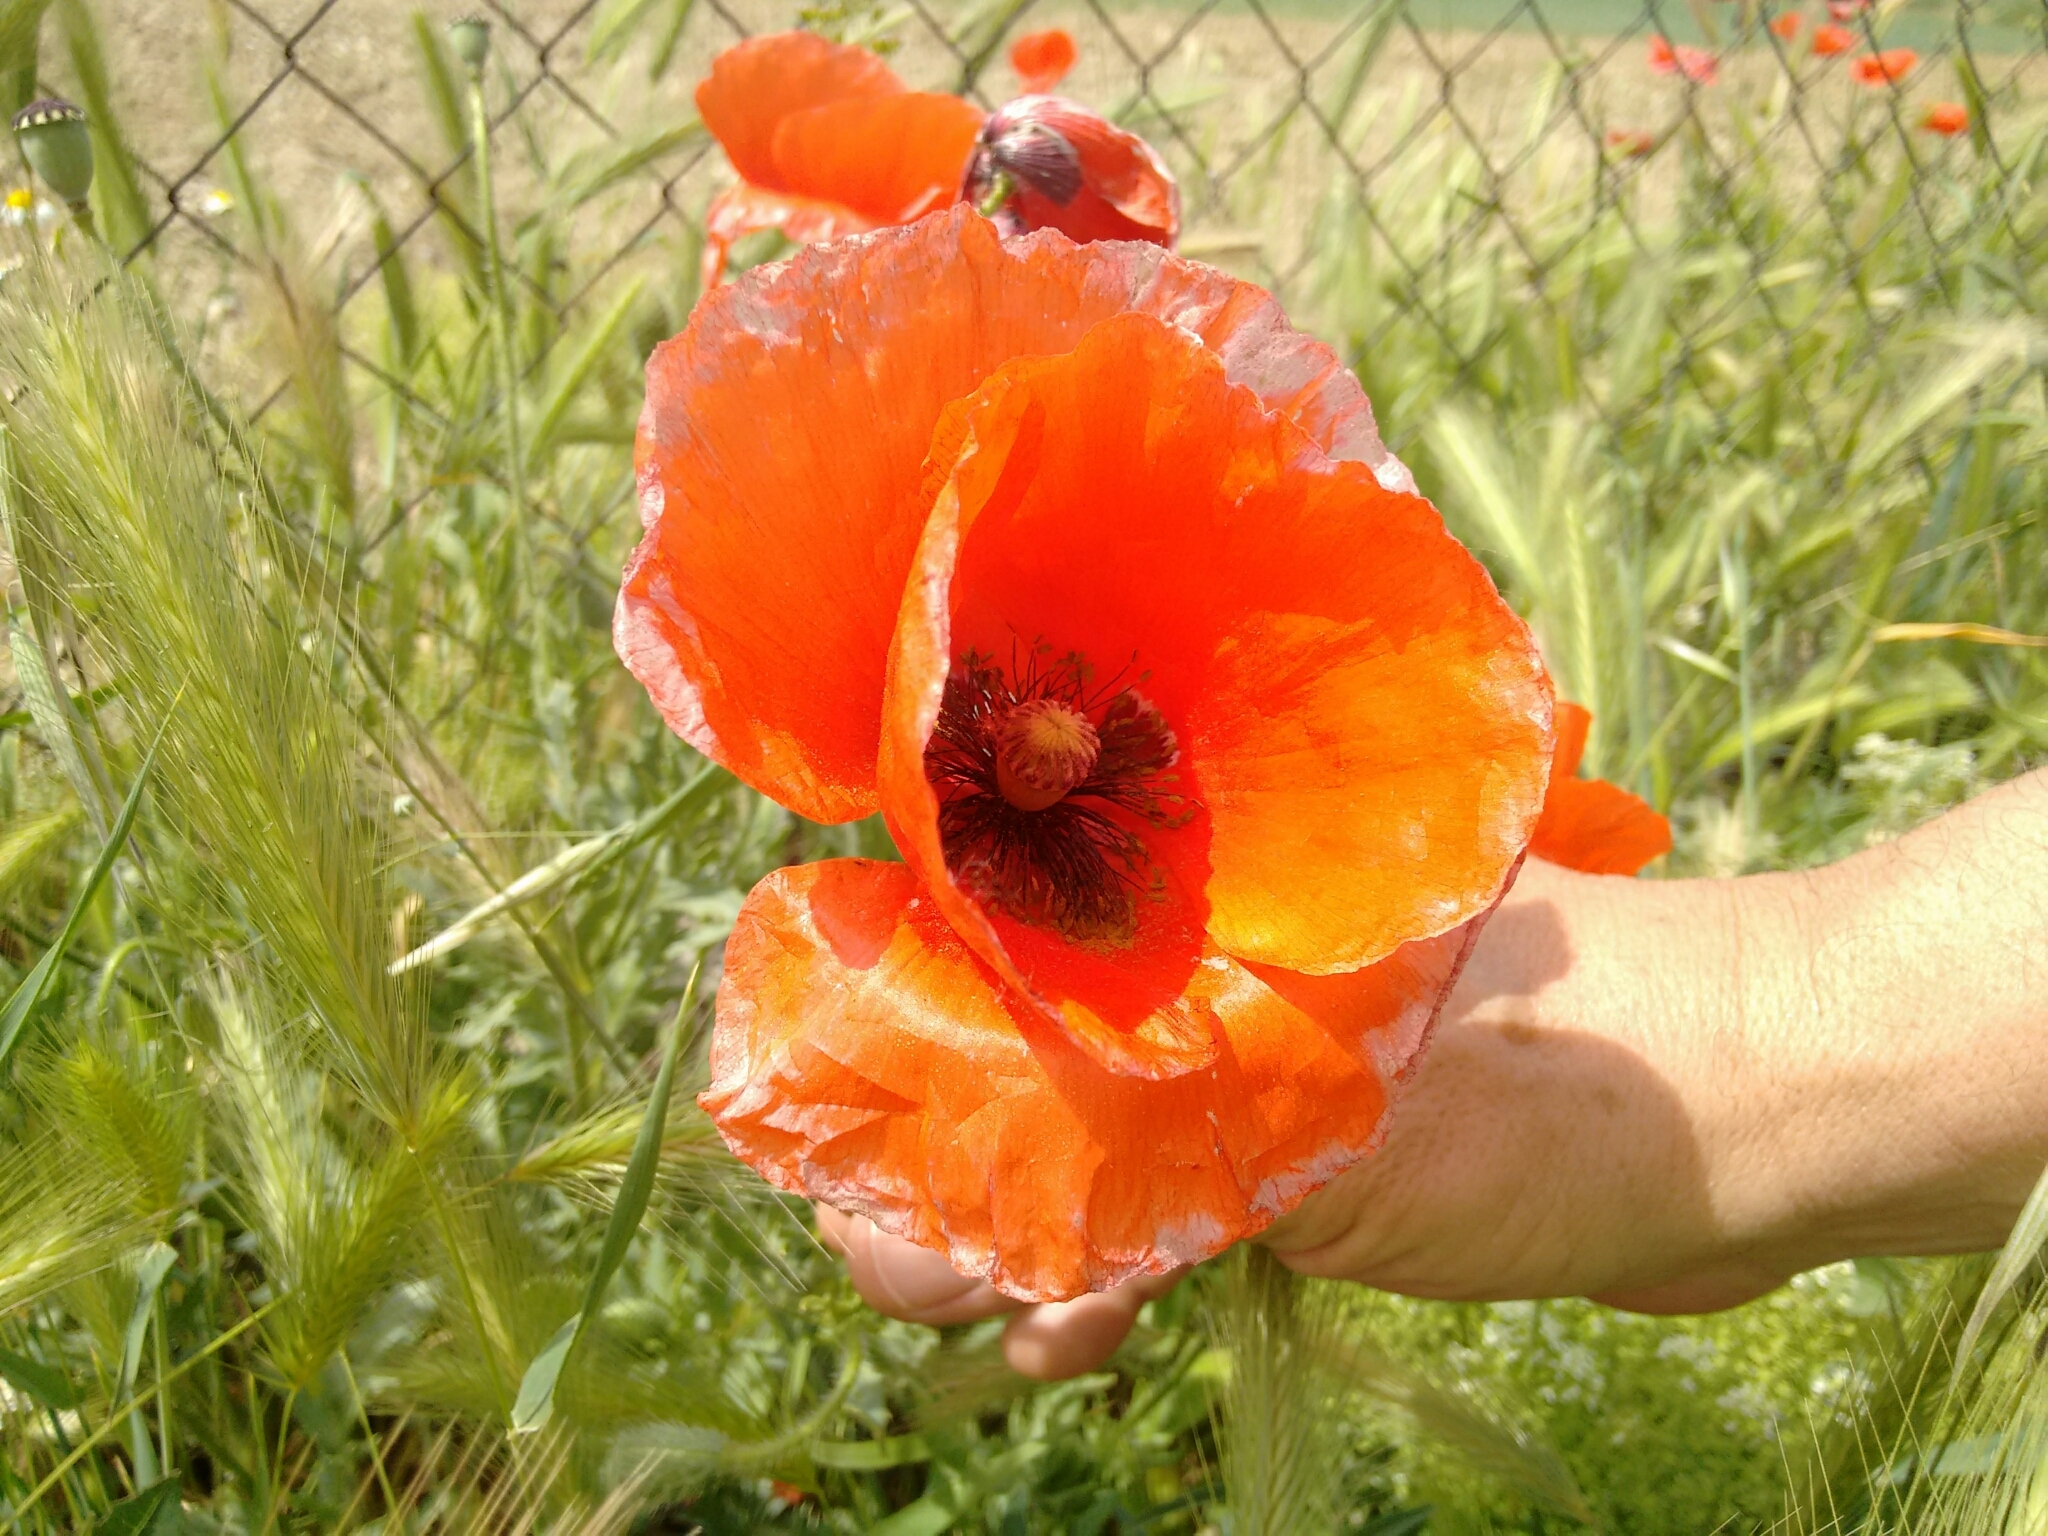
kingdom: Plantae
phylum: Tracheophyta
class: Magnoliopsida
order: Ranunculales
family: Papaveraceae
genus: Papaver
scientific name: Papaver rhoeas
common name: Corn poppy
